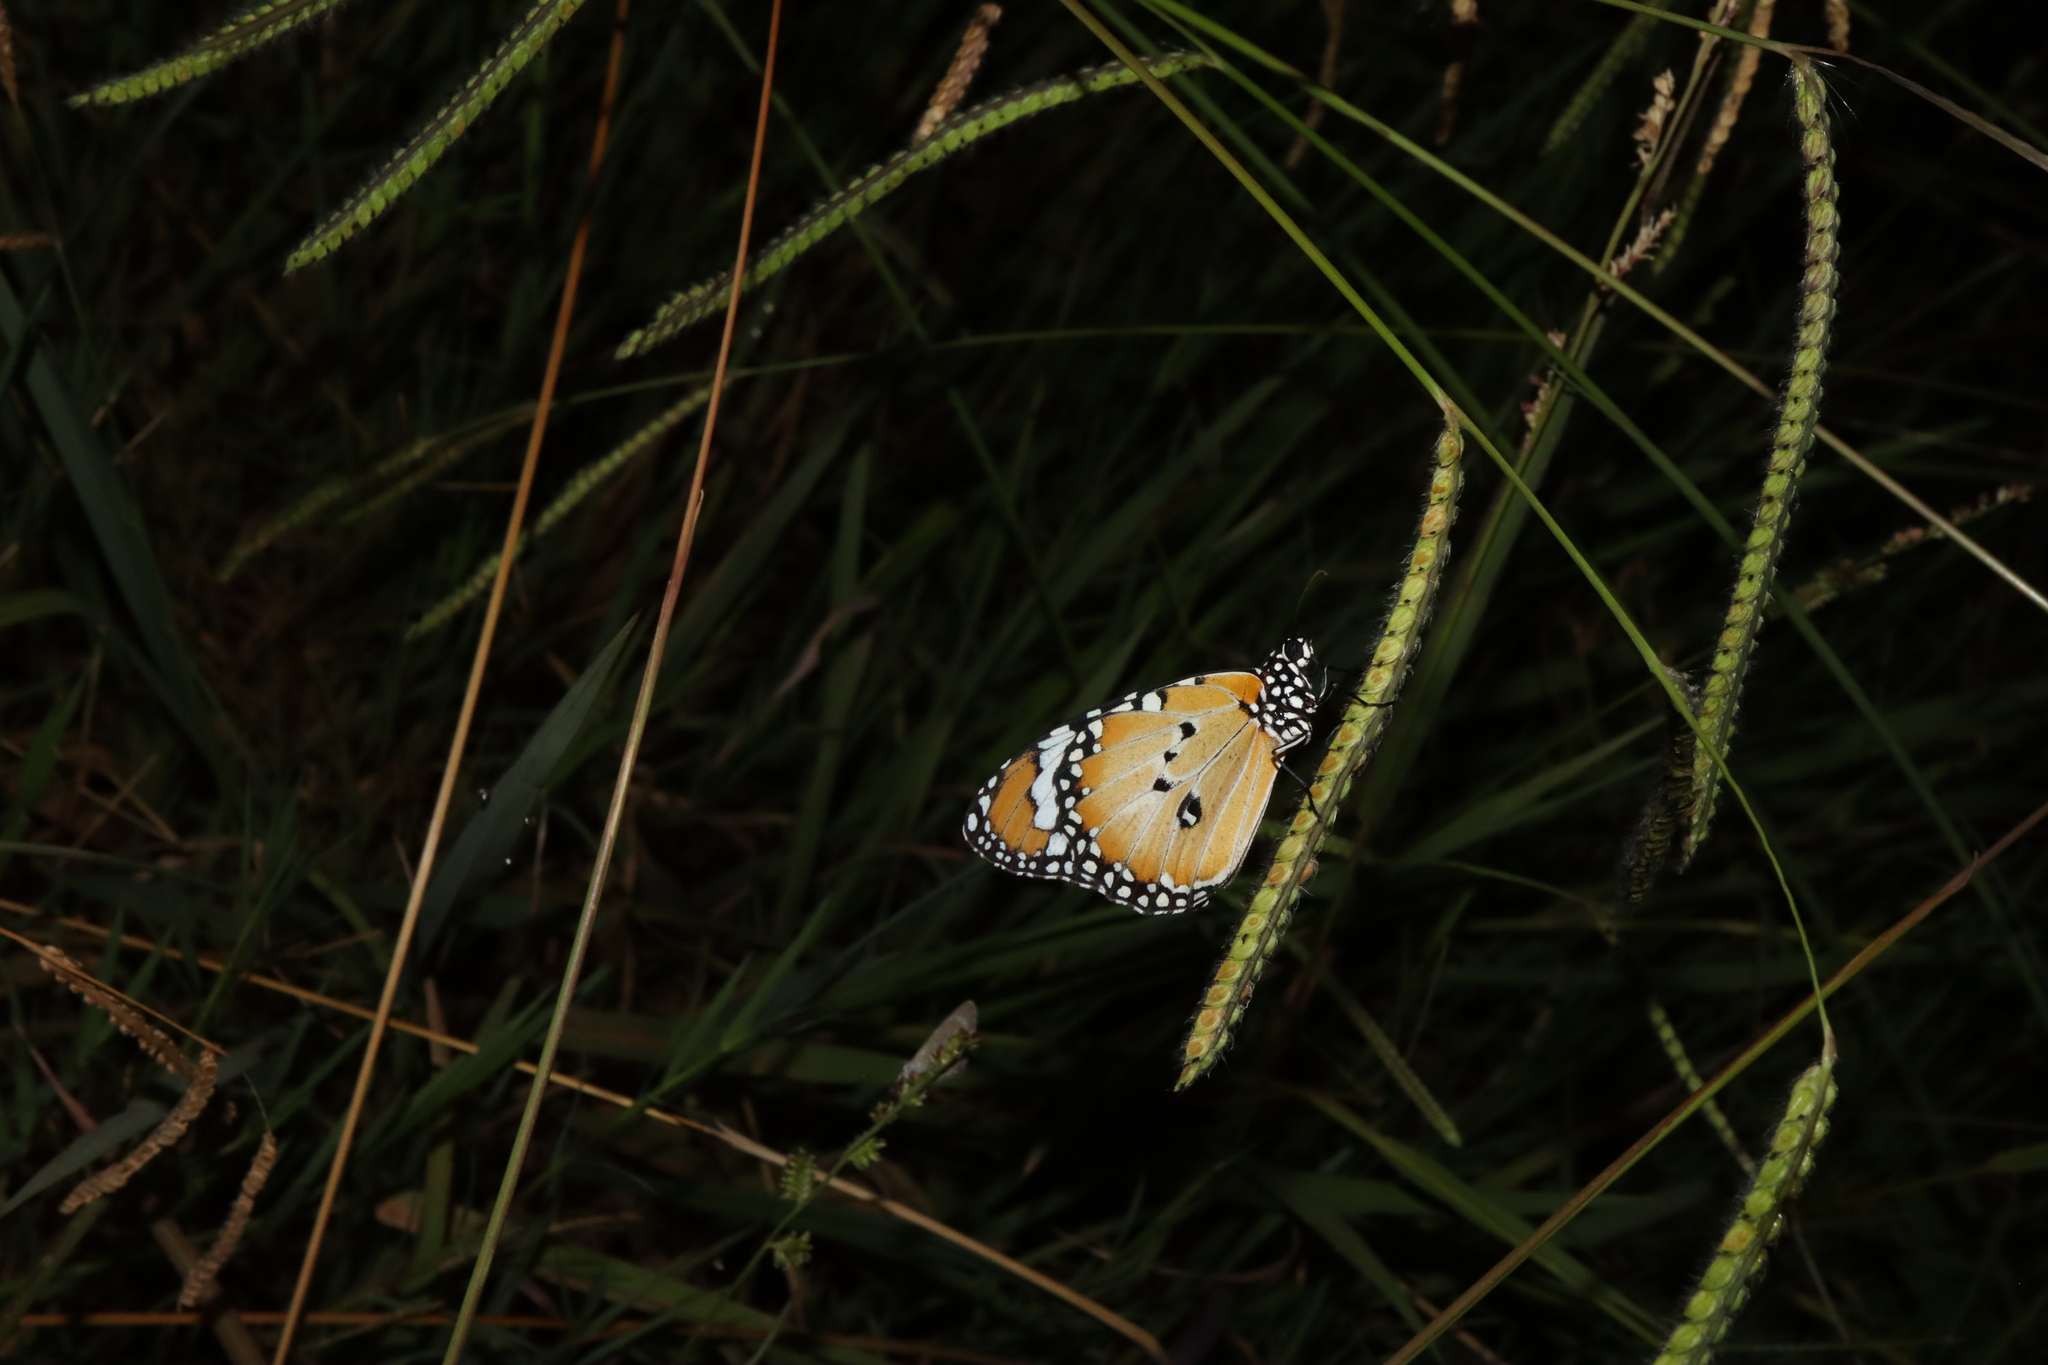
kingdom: Animalia
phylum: Arthropoda
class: Insecta
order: Lepidoptera
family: Nymphalidae
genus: Danaus
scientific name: Danaus chrysippus
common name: Plain tiger
